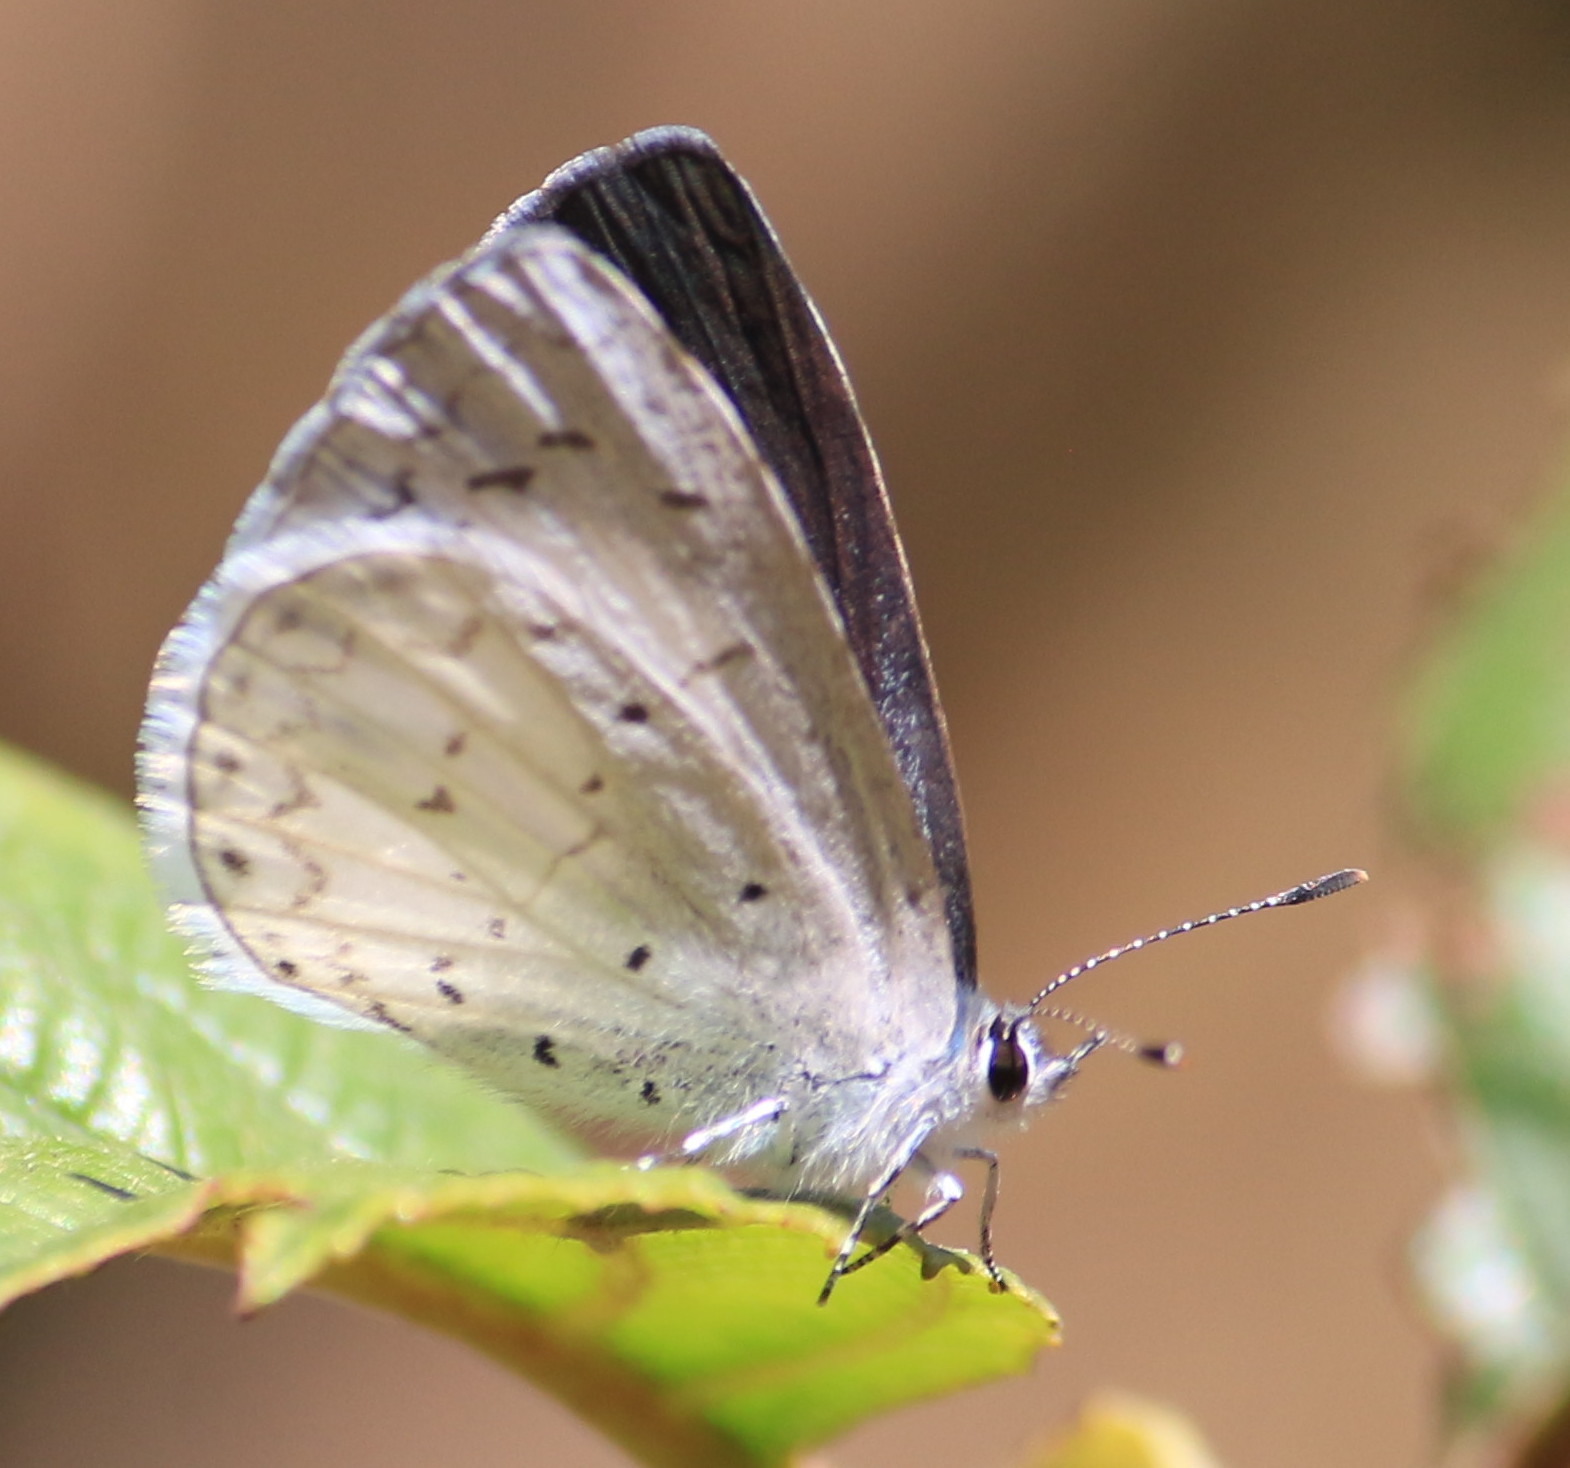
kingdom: Animalia
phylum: Arthropoda
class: Insecta
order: Lepidoptera
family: Lycaenidae
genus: Celastrina
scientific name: Celastrina ladon
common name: Spring azure
